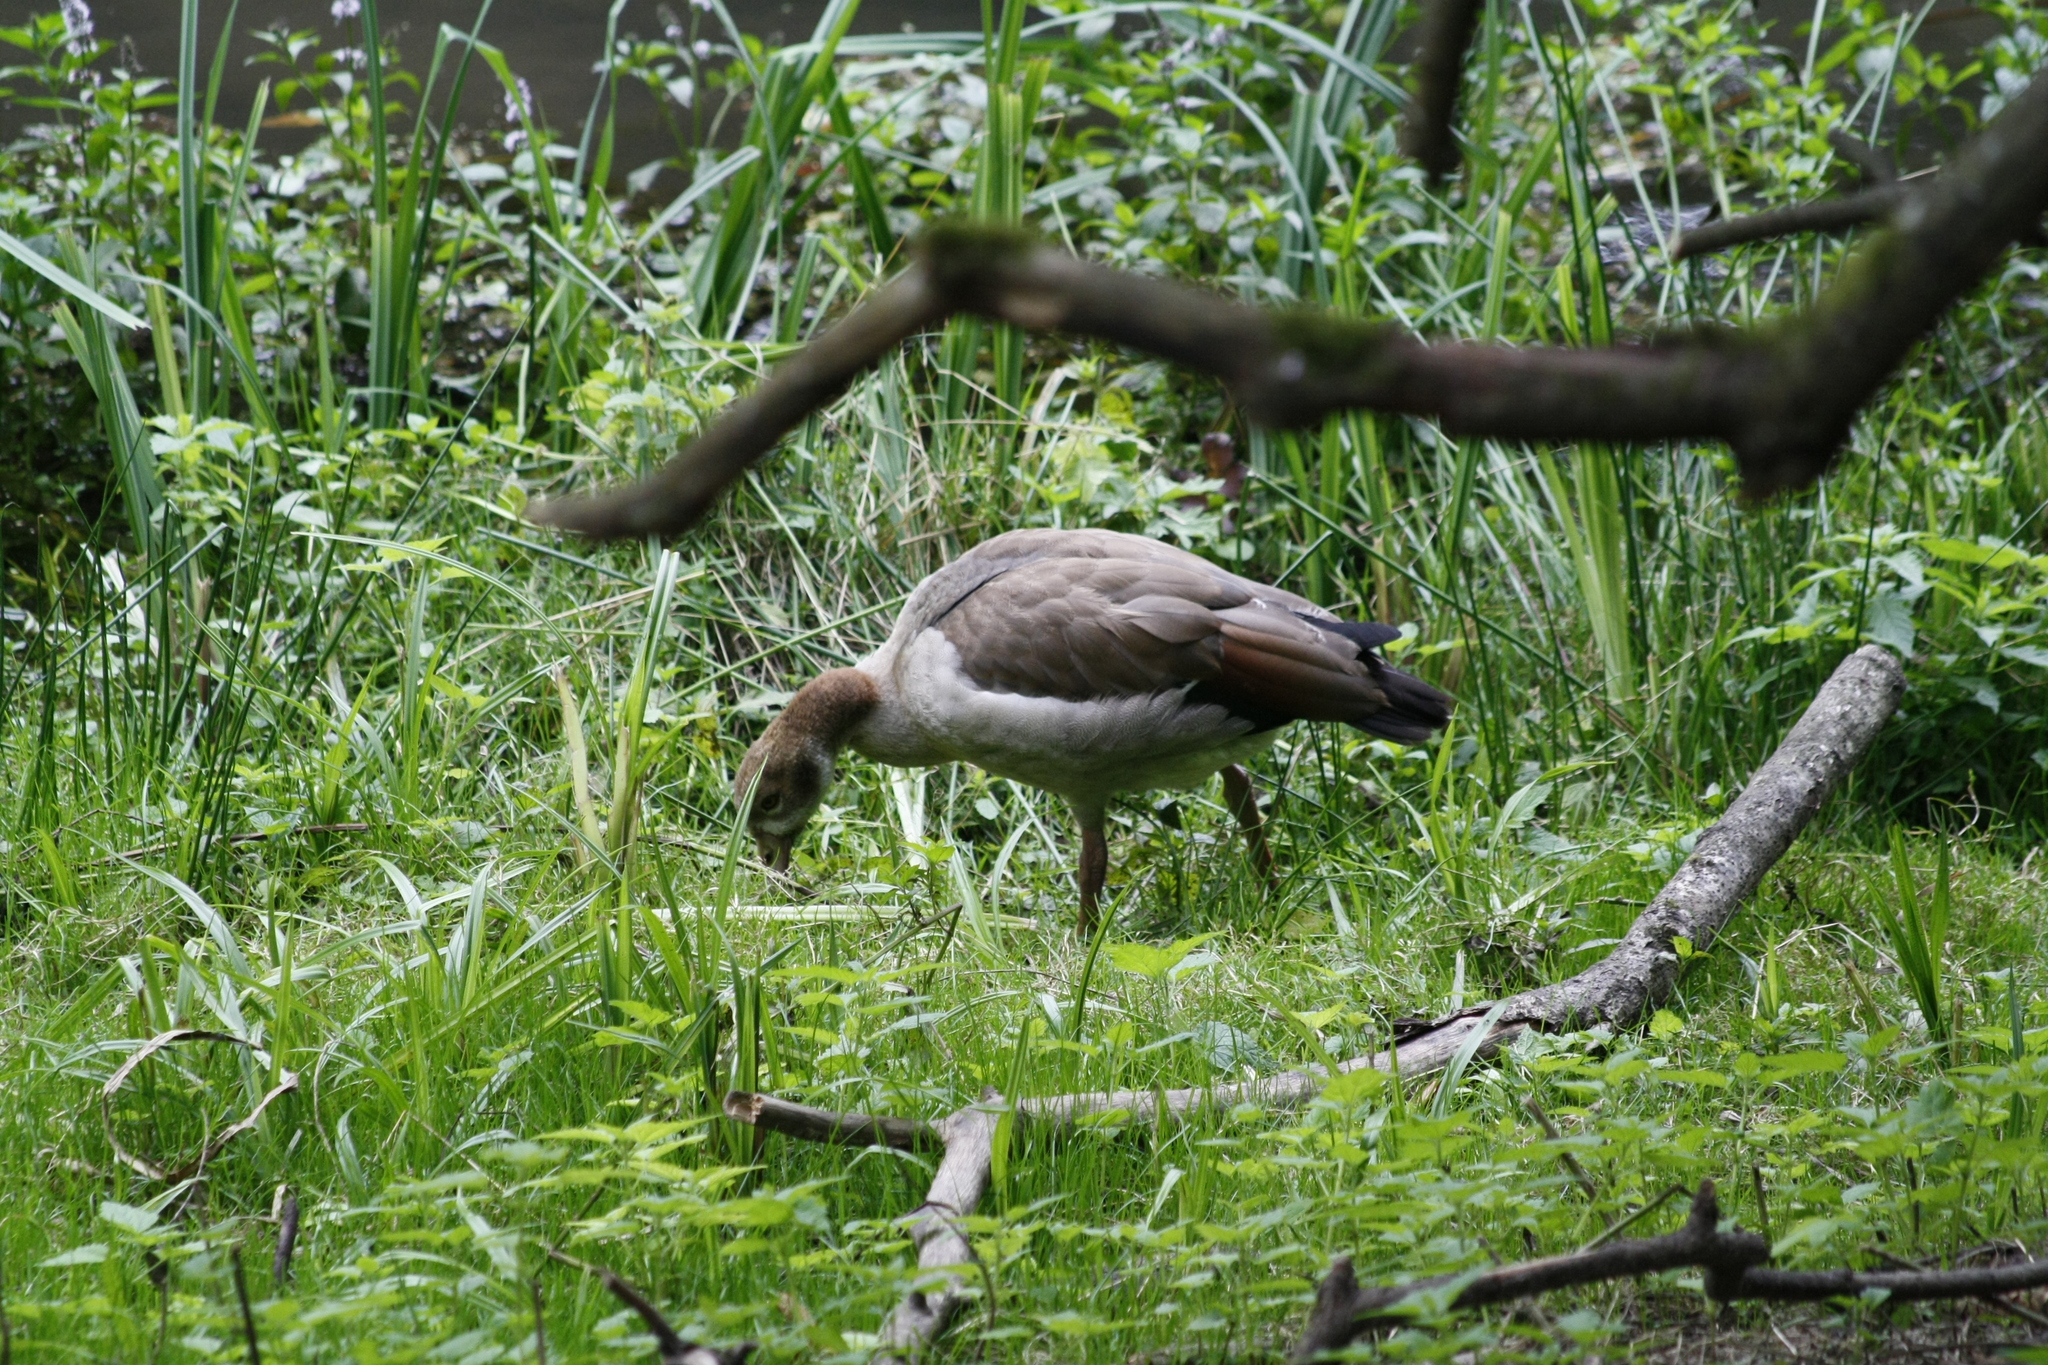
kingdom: Animalia
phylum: Chordata
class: Aves
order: Anseriformes
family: Anatidae
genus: Alopochen
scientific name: Alopochen aegyptiaca
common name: Egyptian goose
